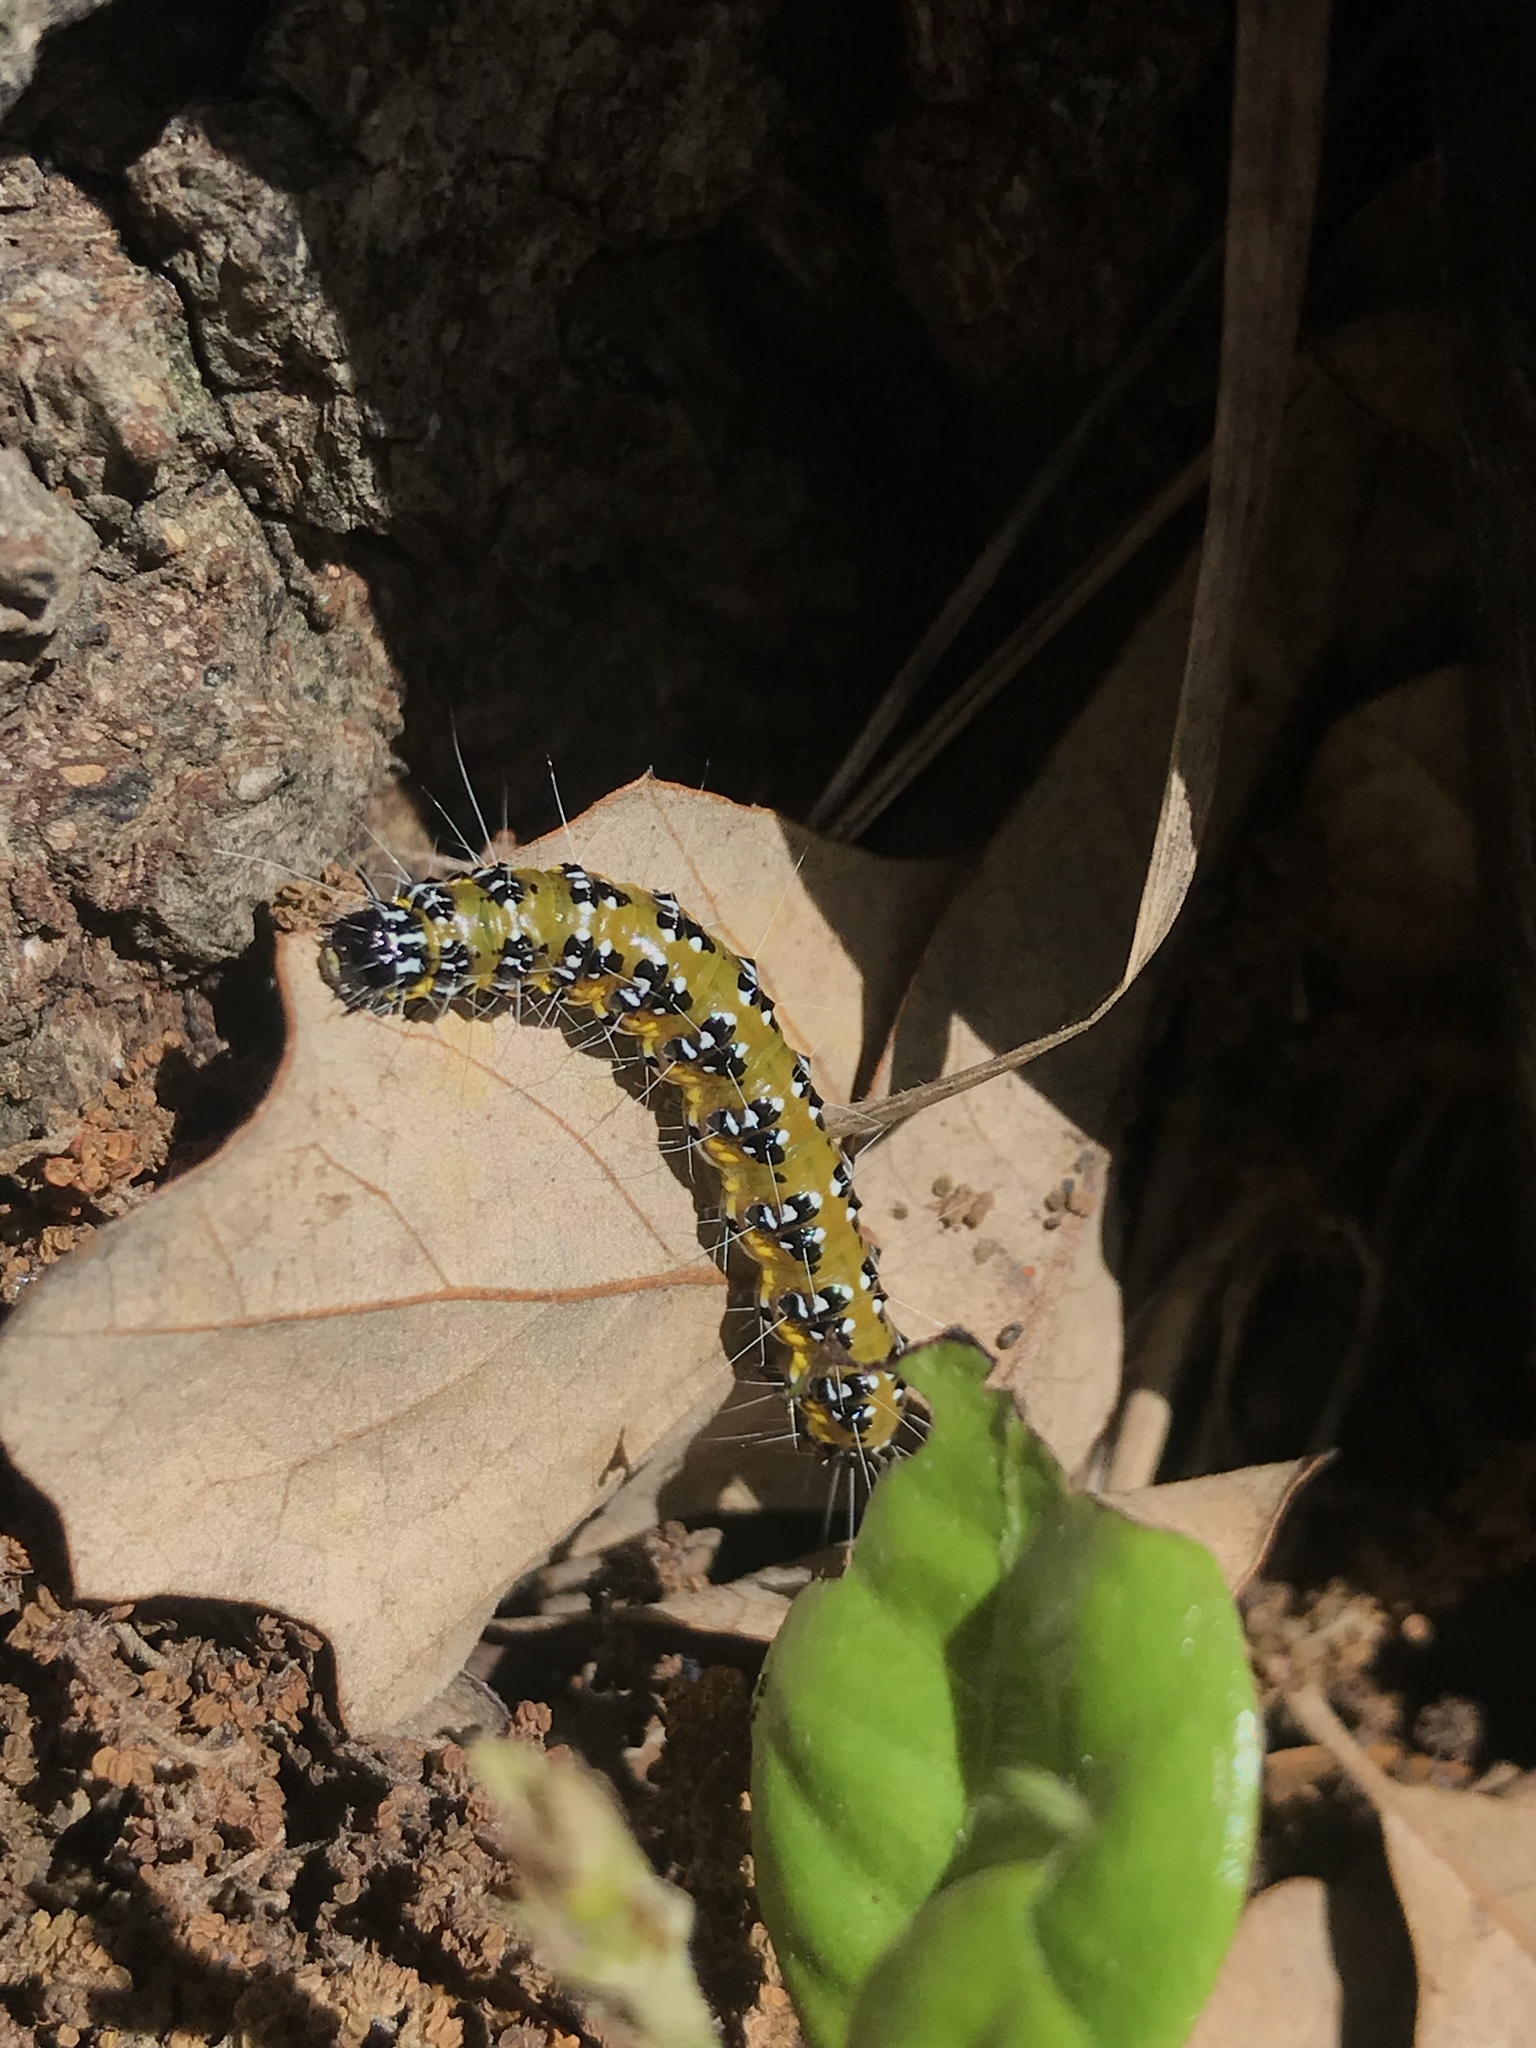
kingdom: Animalia
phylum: Arthropoda
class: Insecta
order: Lepidoptera
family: Crambidae
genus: Uresiphita
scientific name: Uresiphita reversalis
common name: Genista broom moth
